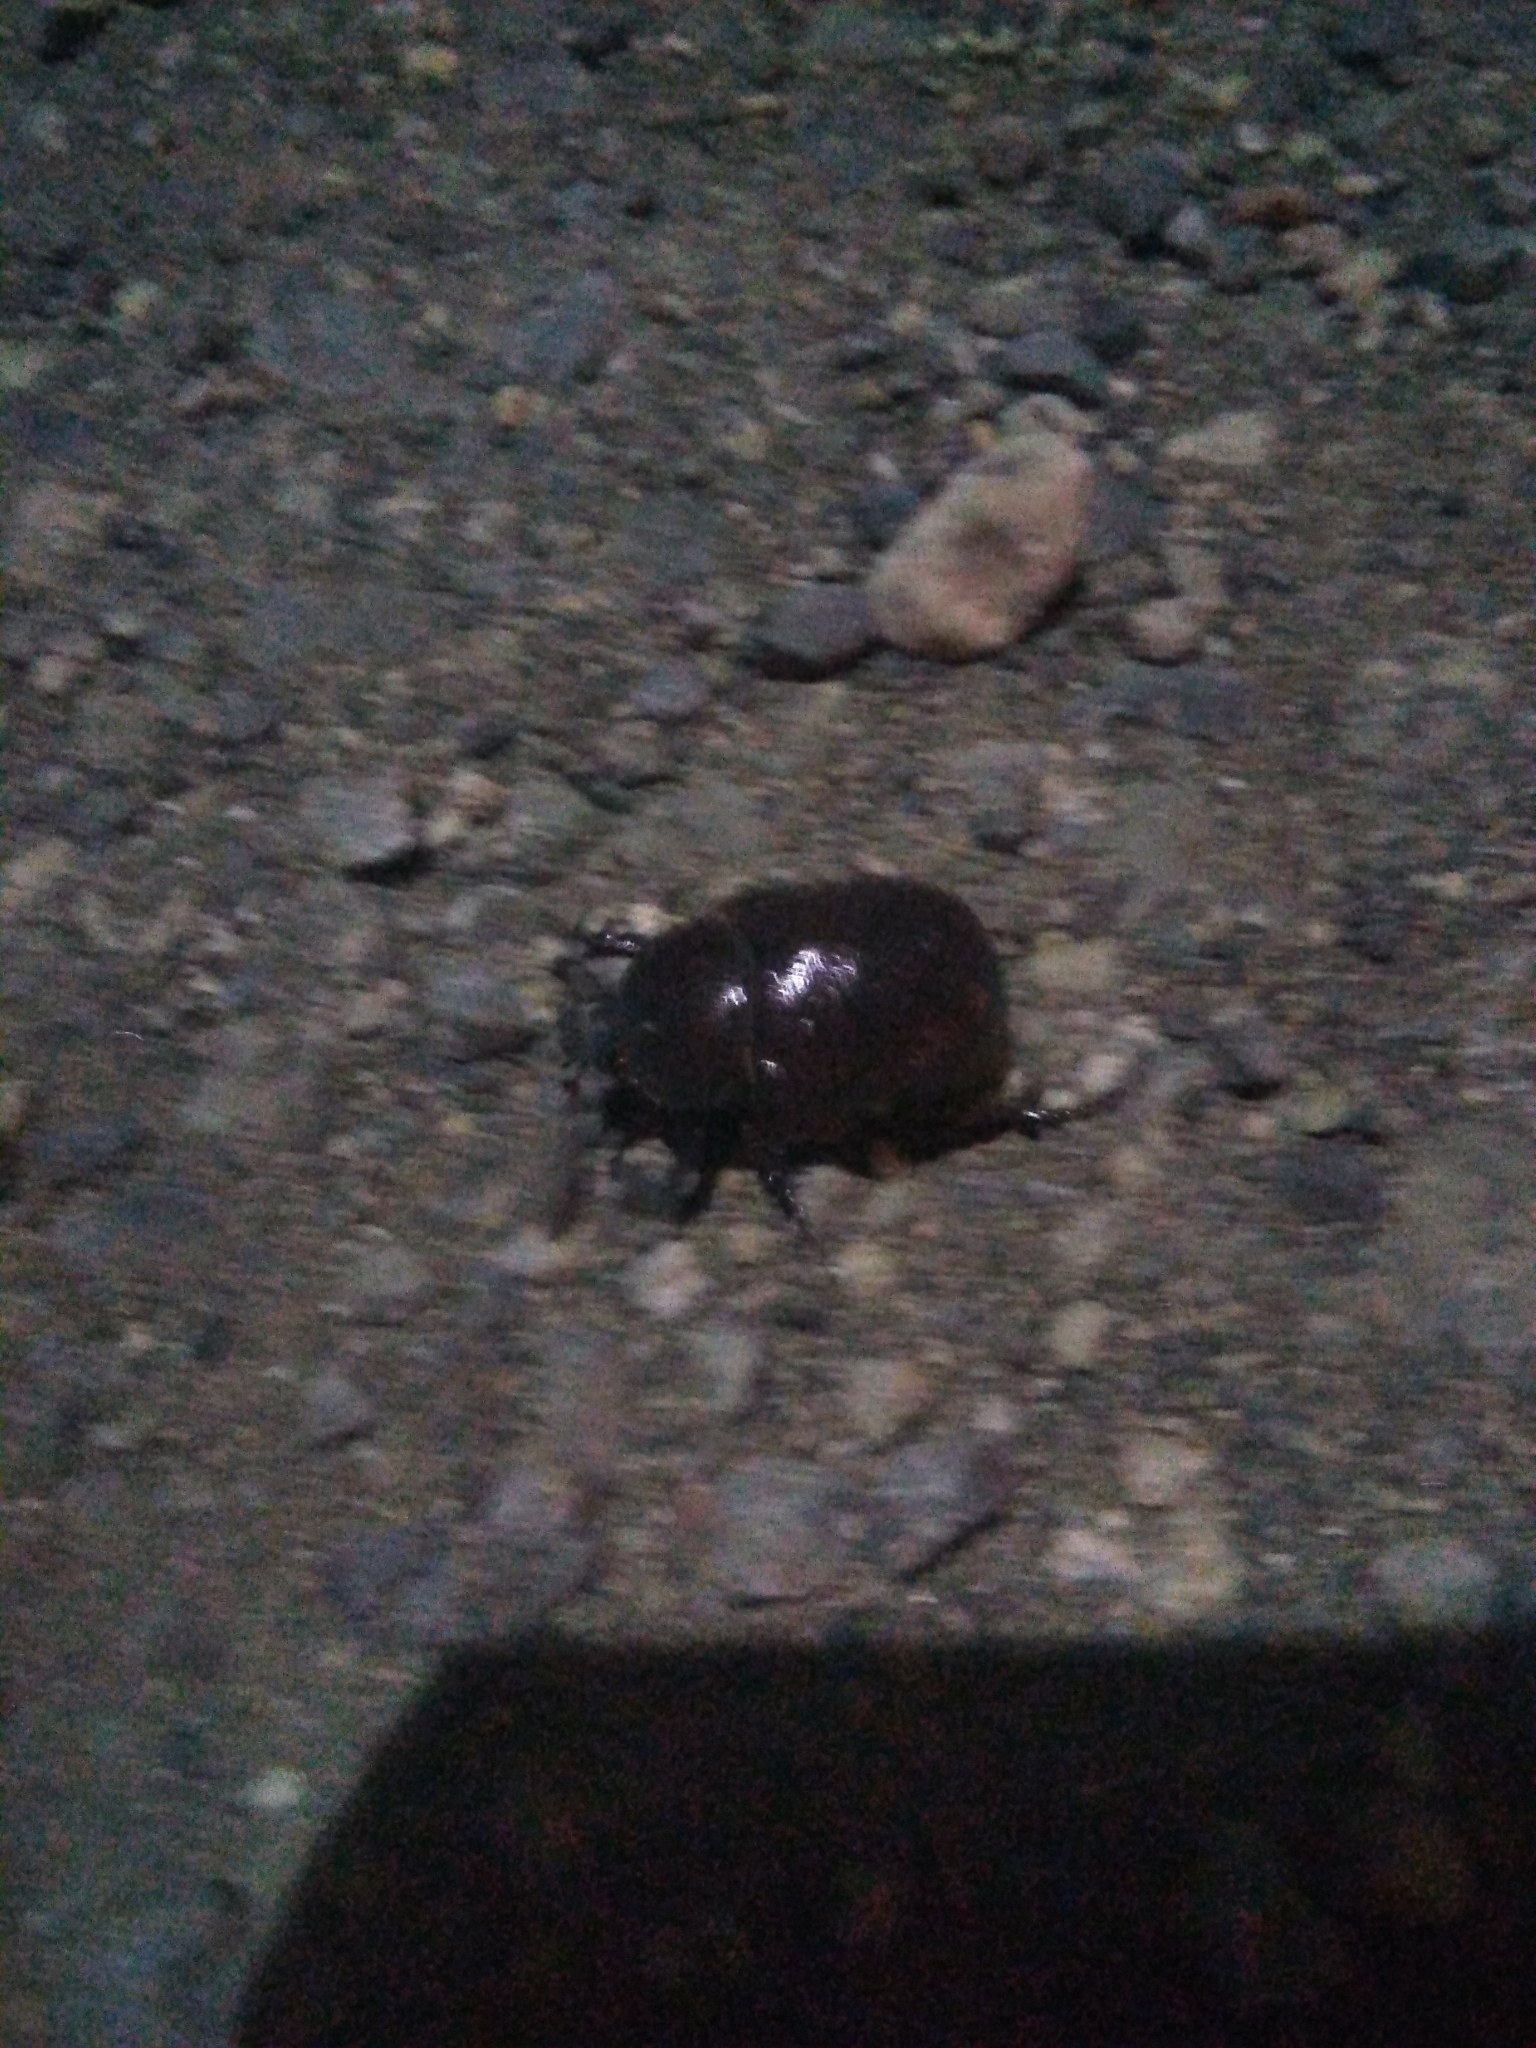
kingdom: Animalia
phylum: Arthropoda
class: Insecta
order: Coleoptera
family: Scarabaeidae
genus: Phyllognathus
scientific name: Phyllognathus excavatus
